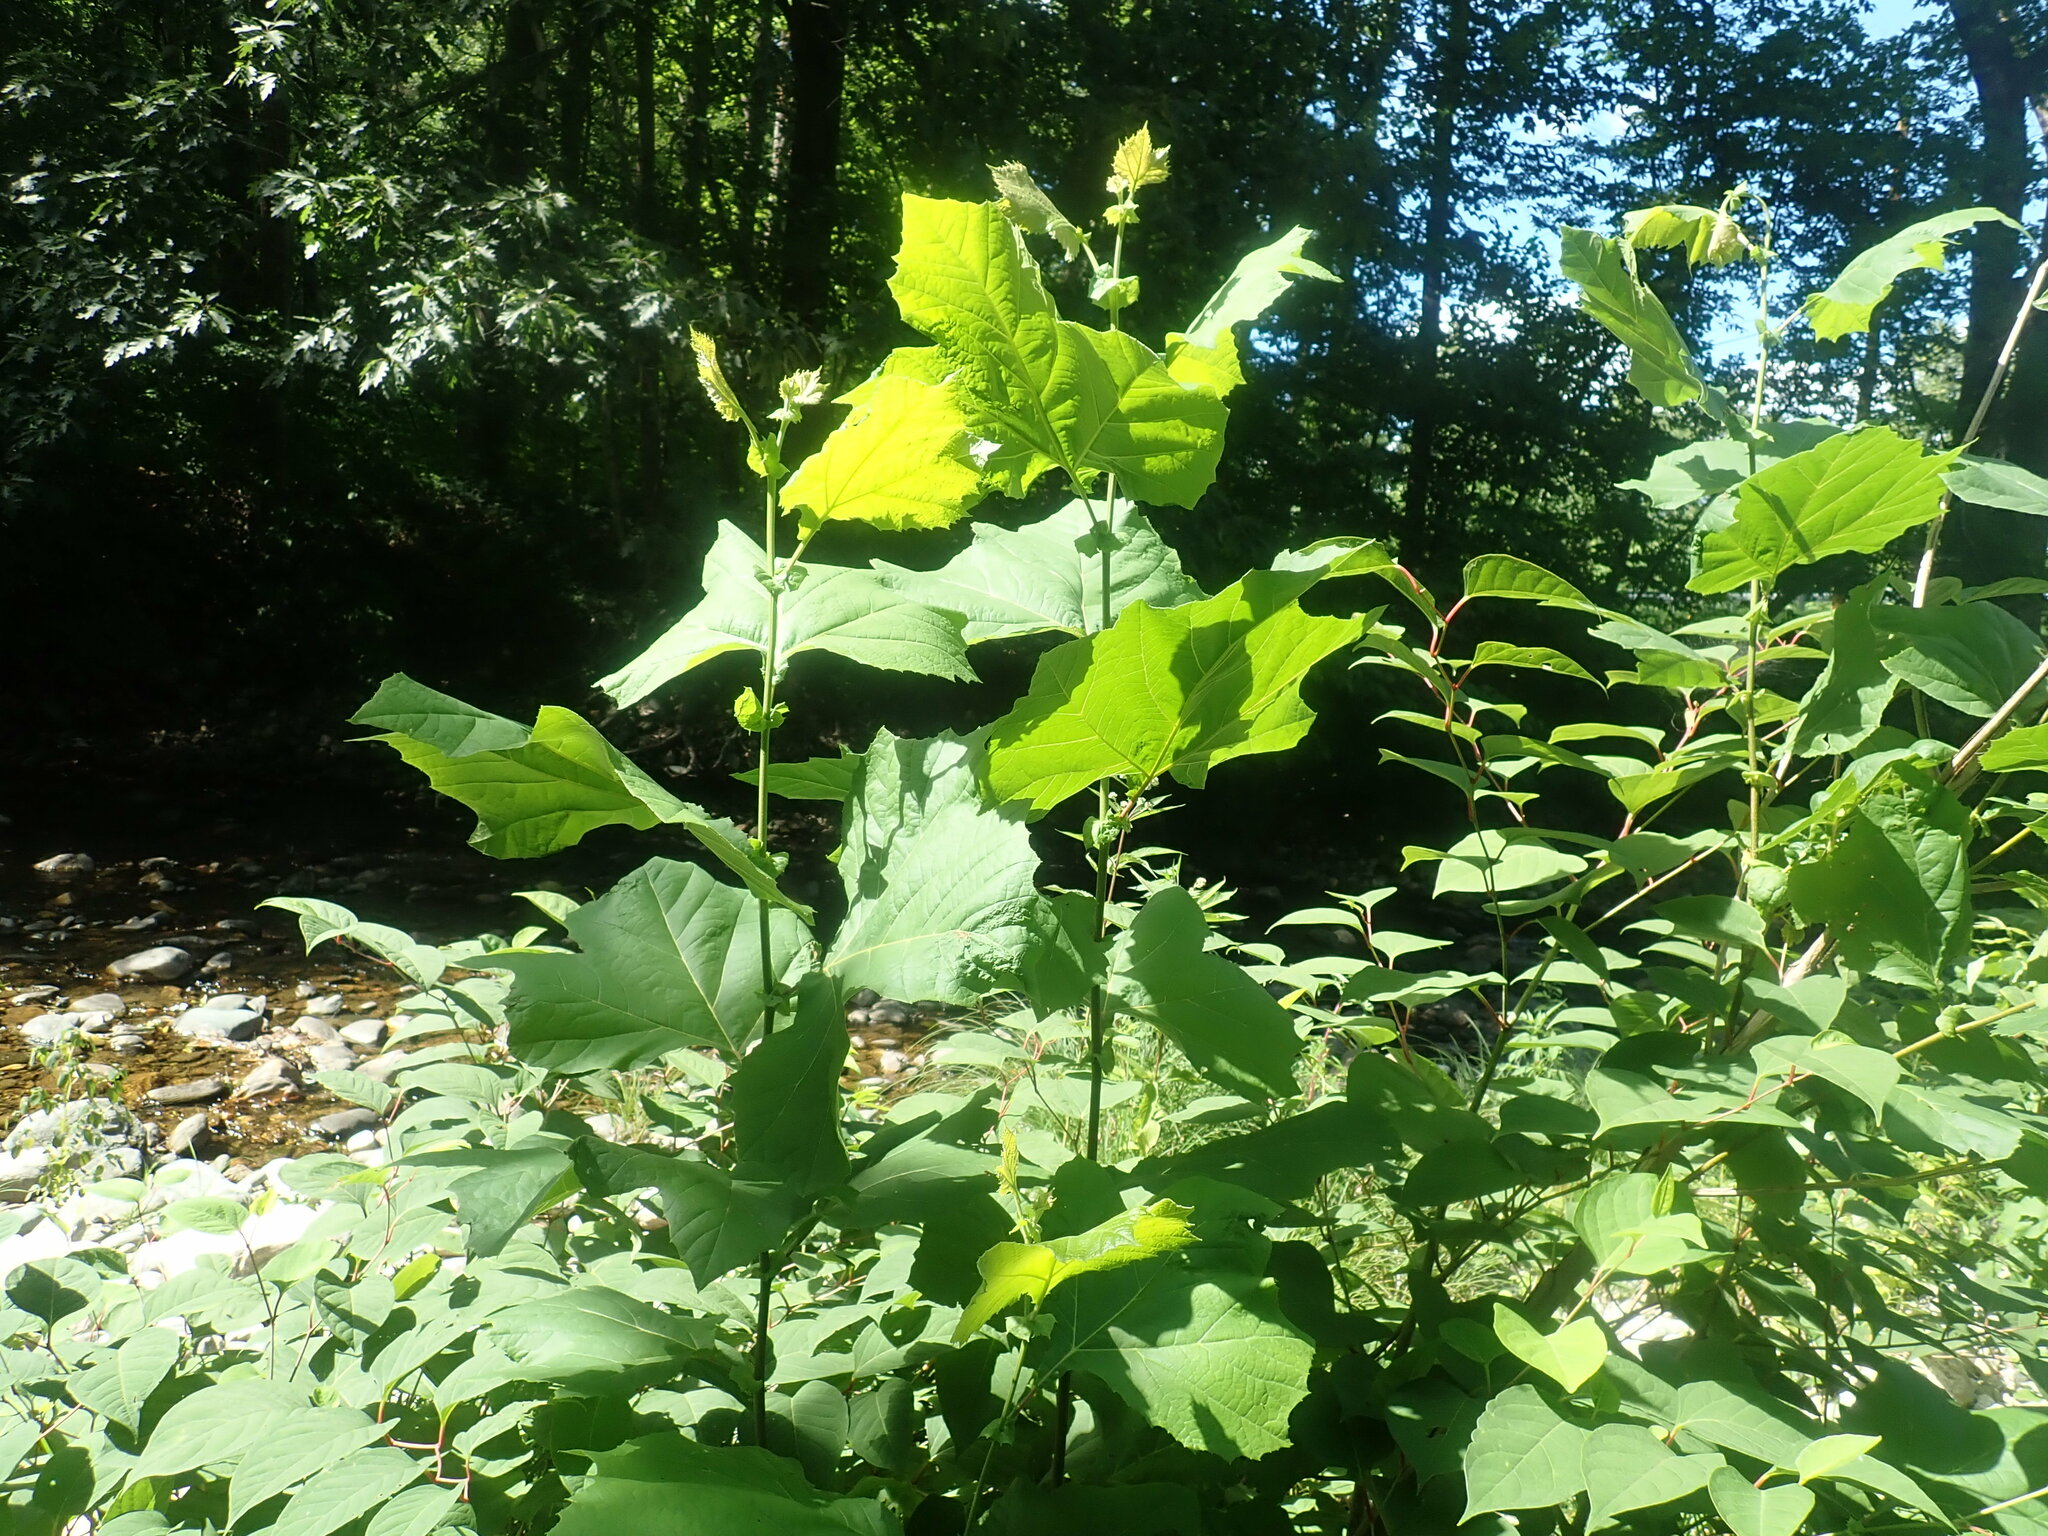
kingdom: Plantae
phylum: Tracheophyta
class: Magnoliopsida
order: Proteales
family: Platanaceae
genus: Platanus
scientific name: Platanus occidentalis
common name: American sycamore
